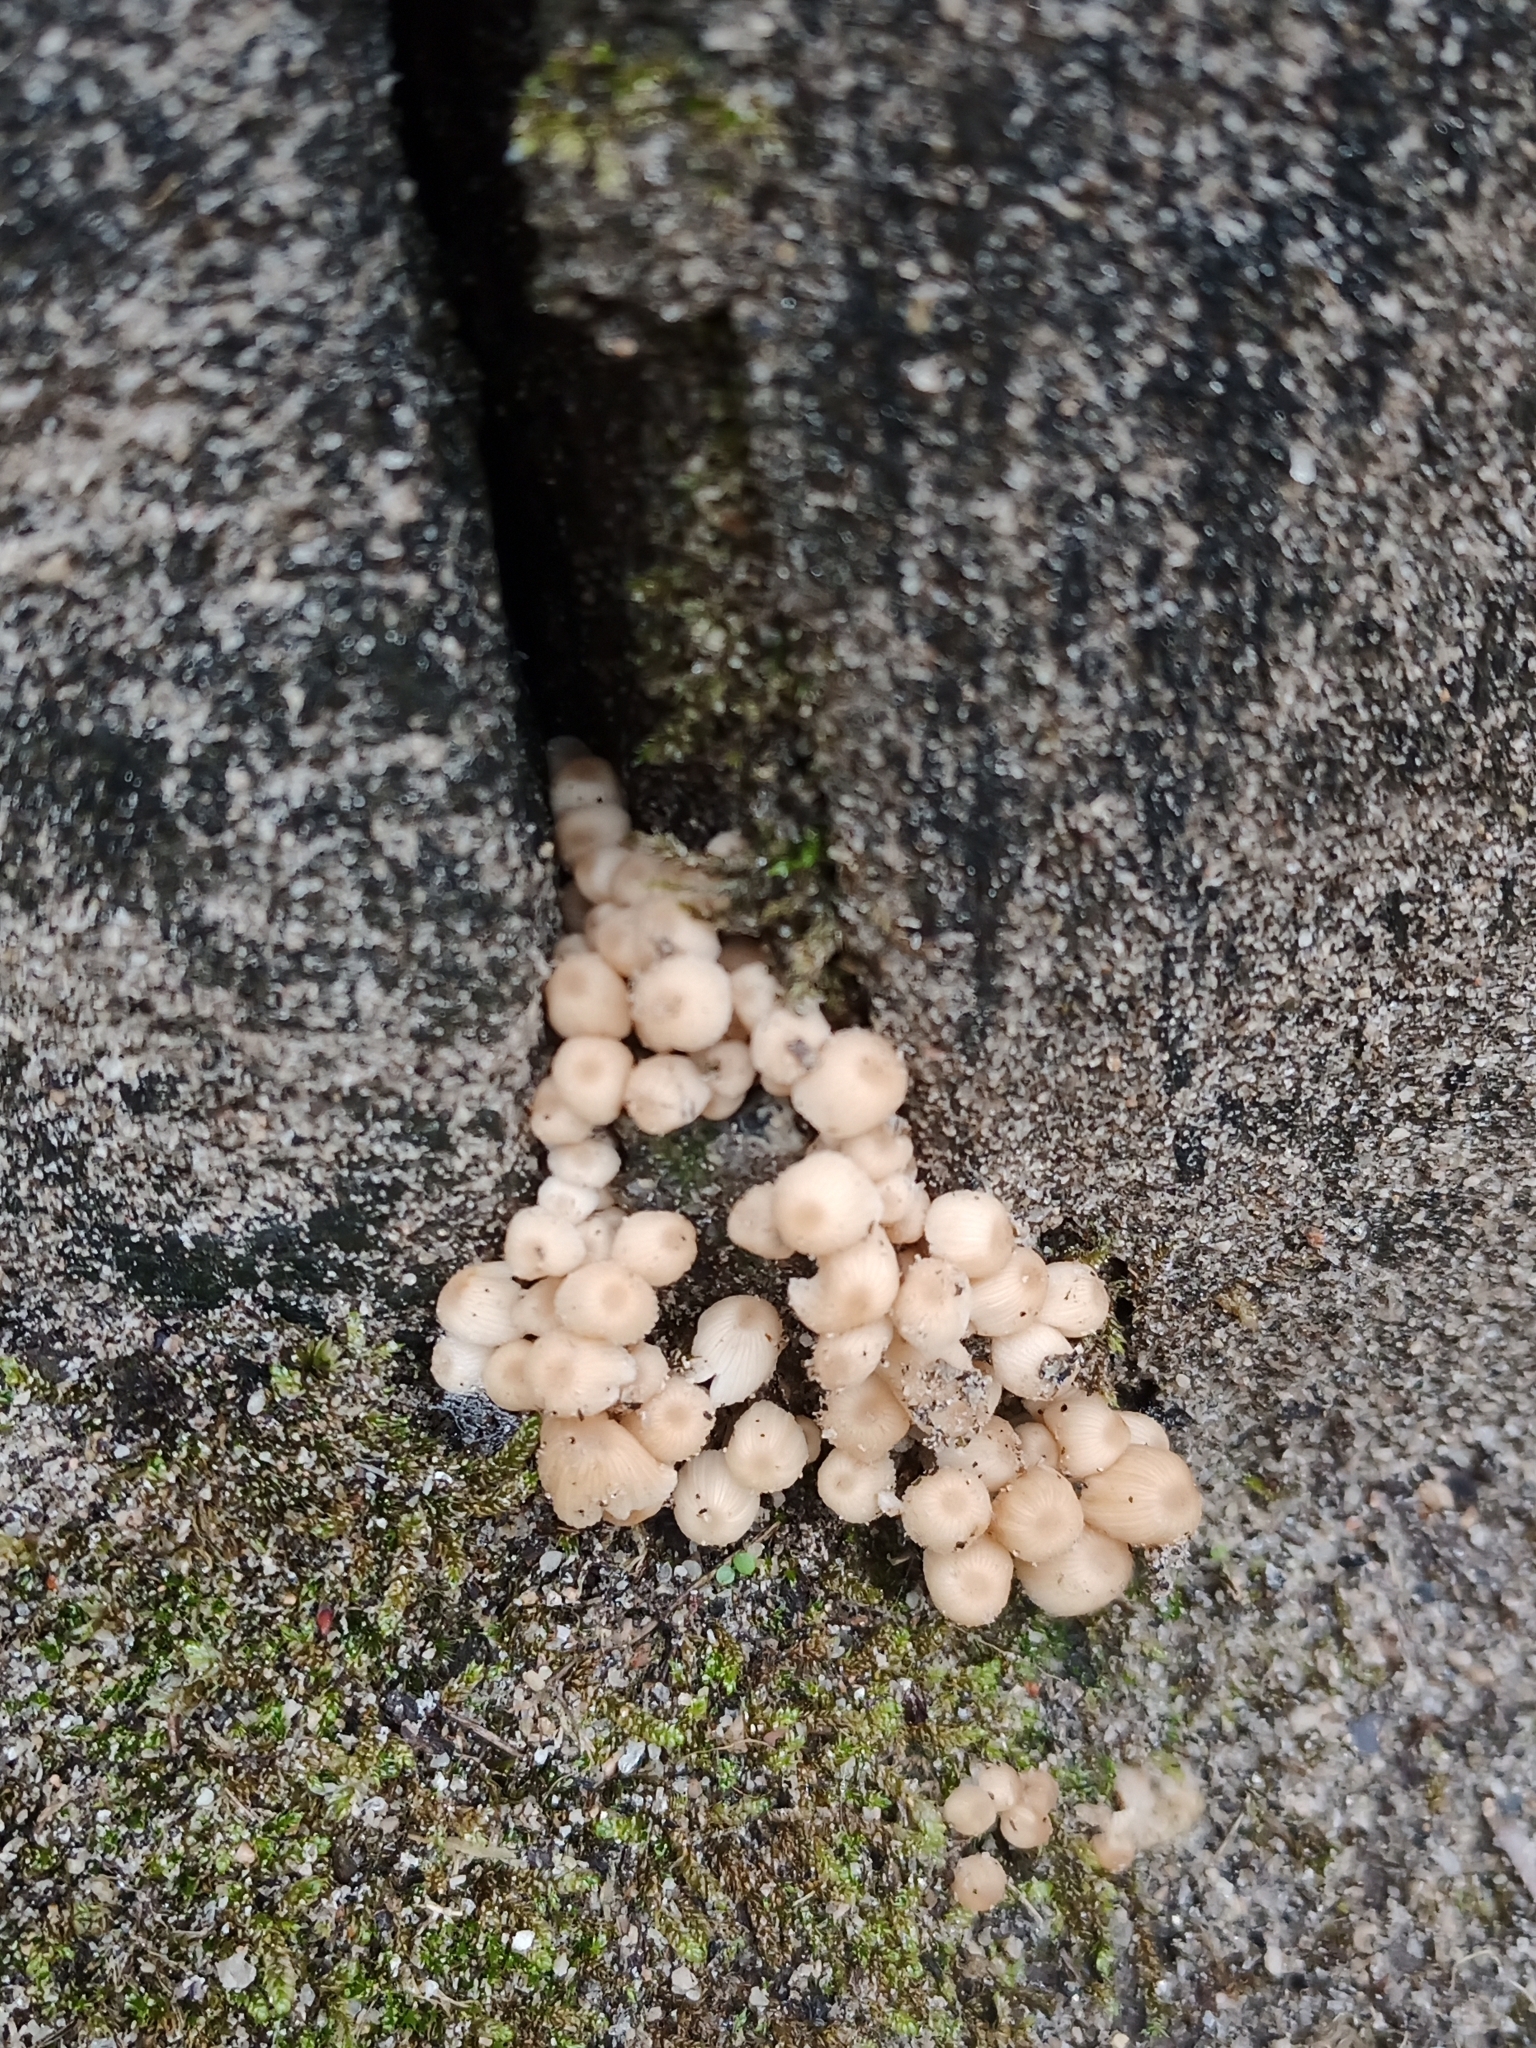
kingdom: Fungi
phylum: Basidiomycota
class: Agaricomycetes
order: Agaricales
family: Psathyrellaceae
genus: Coprinellus
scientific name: Coprinellus disseminatus
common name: Fairies' bonnets
